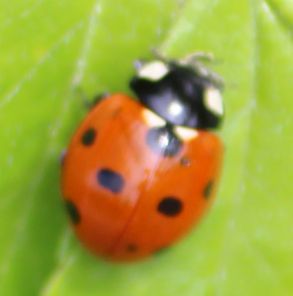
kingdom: Animalia
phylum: Arthropoda
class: Insecta
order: Coleoptera
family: Coccinellidae
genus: Coccinella
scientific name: Coccinella septempunctata
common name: Sevenspotted lady beetle
